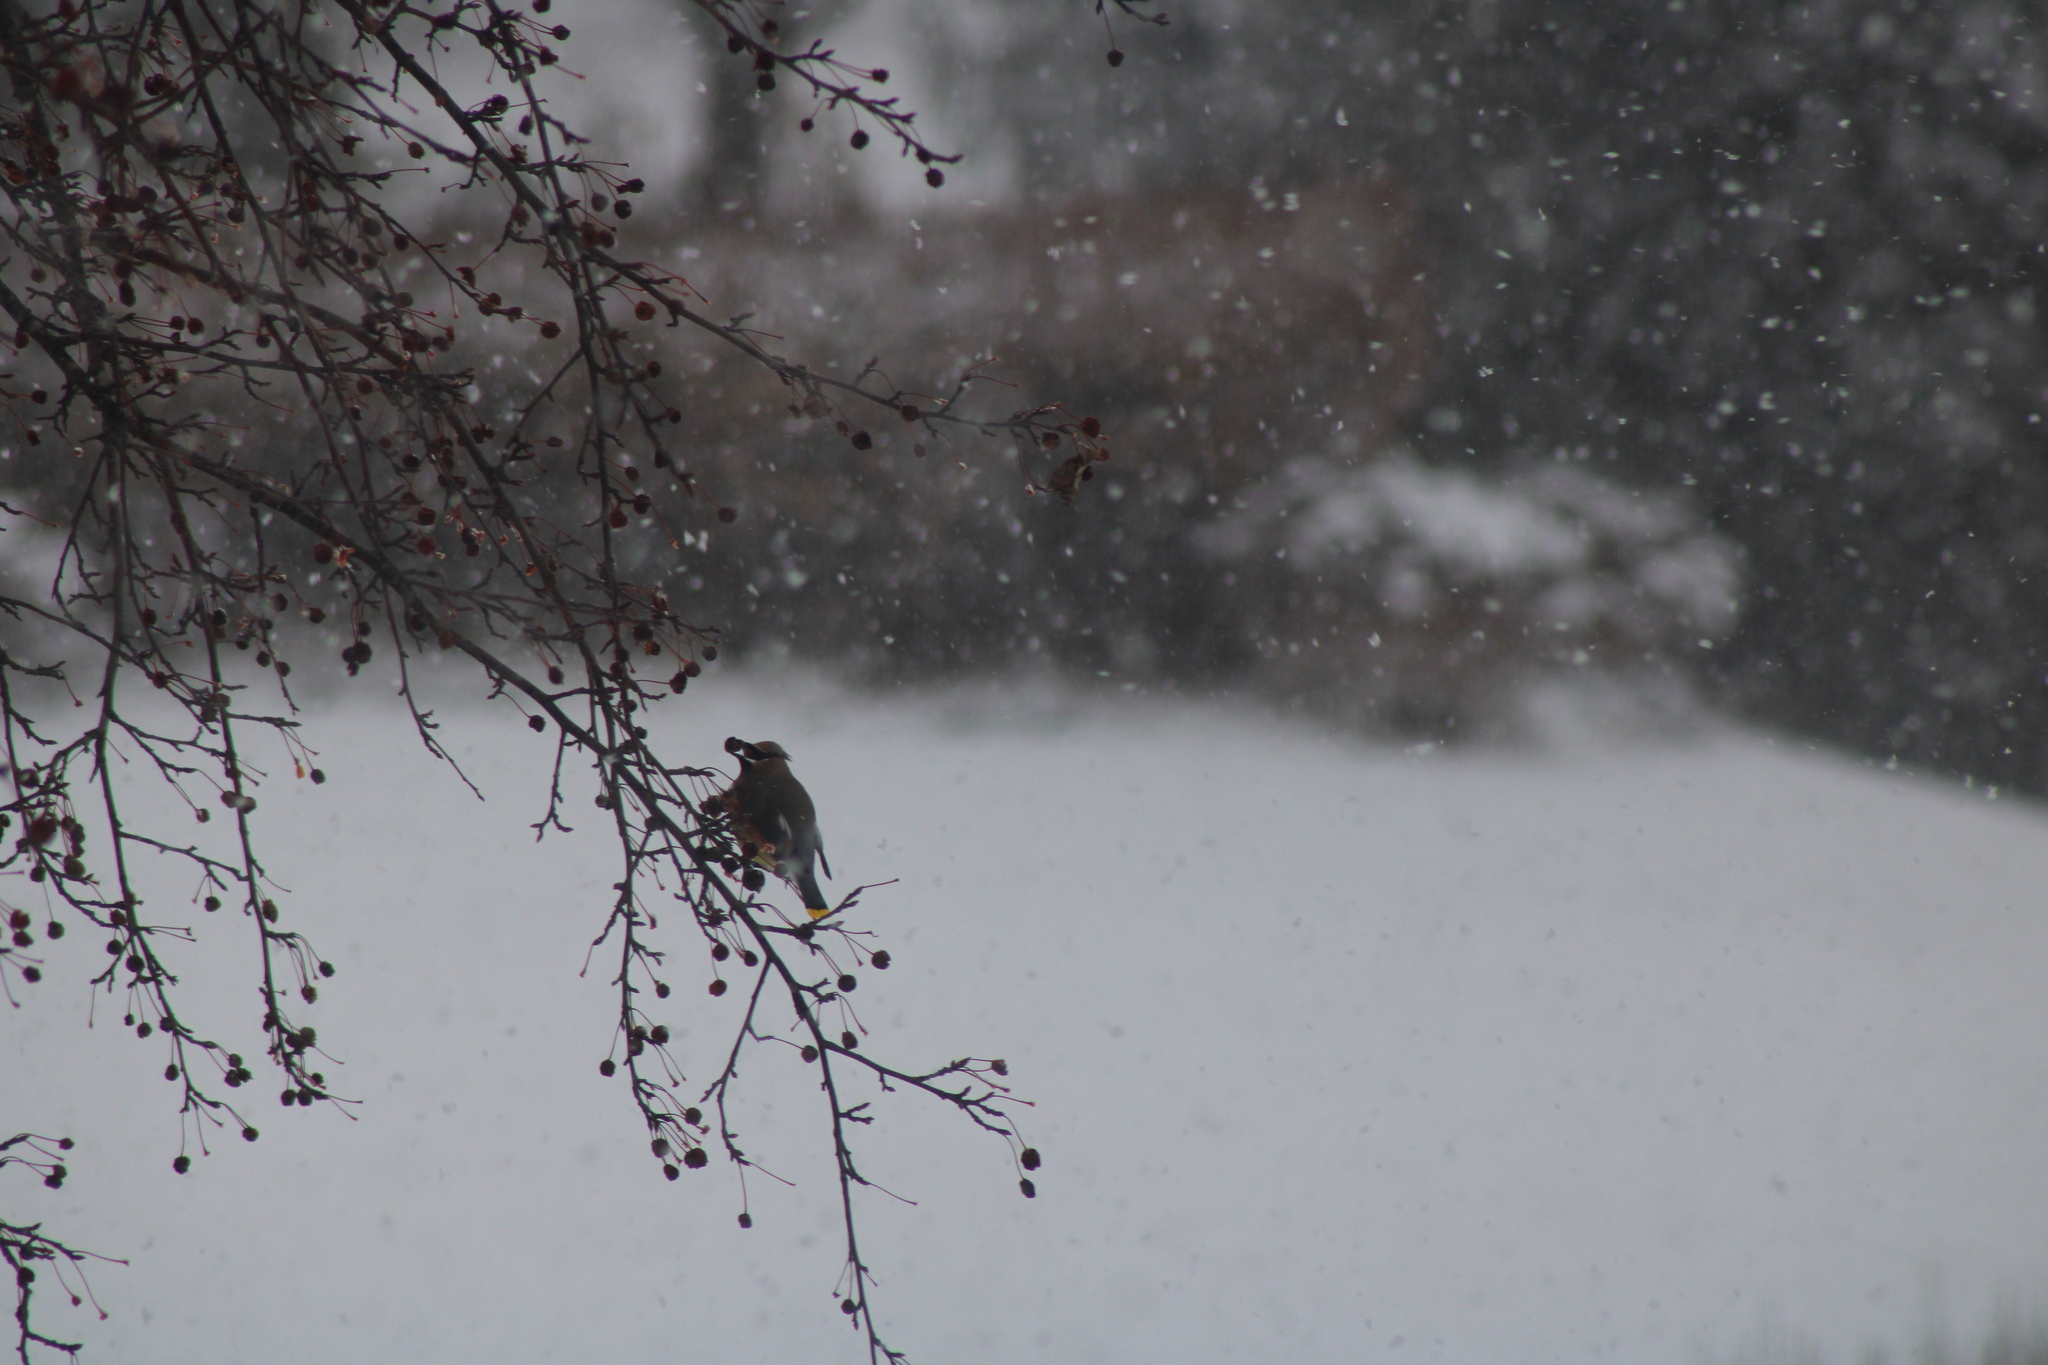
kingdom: Animalia
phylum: Chordata
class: Aves
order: Passeriformes
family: Bombycillidae
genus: Bombycilla
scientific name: Bombycilla cedrorum
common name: Cedar waxwing
